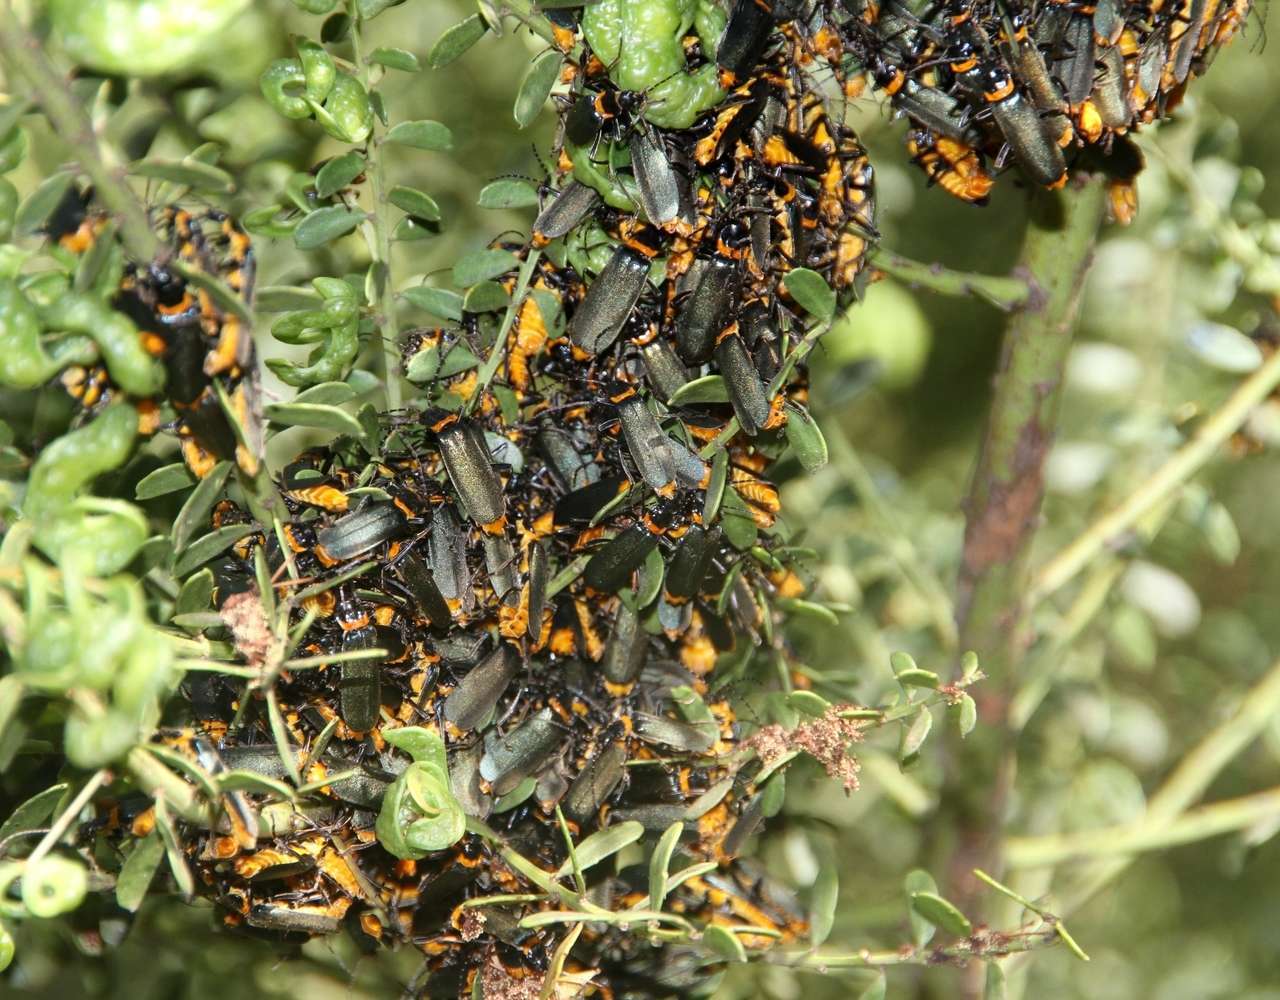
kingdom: Animalia
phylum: Arthropoda
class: Insecta
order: Coleoptera
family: Cantharidae
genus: Chauliognathus
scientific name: Chauliognathus
